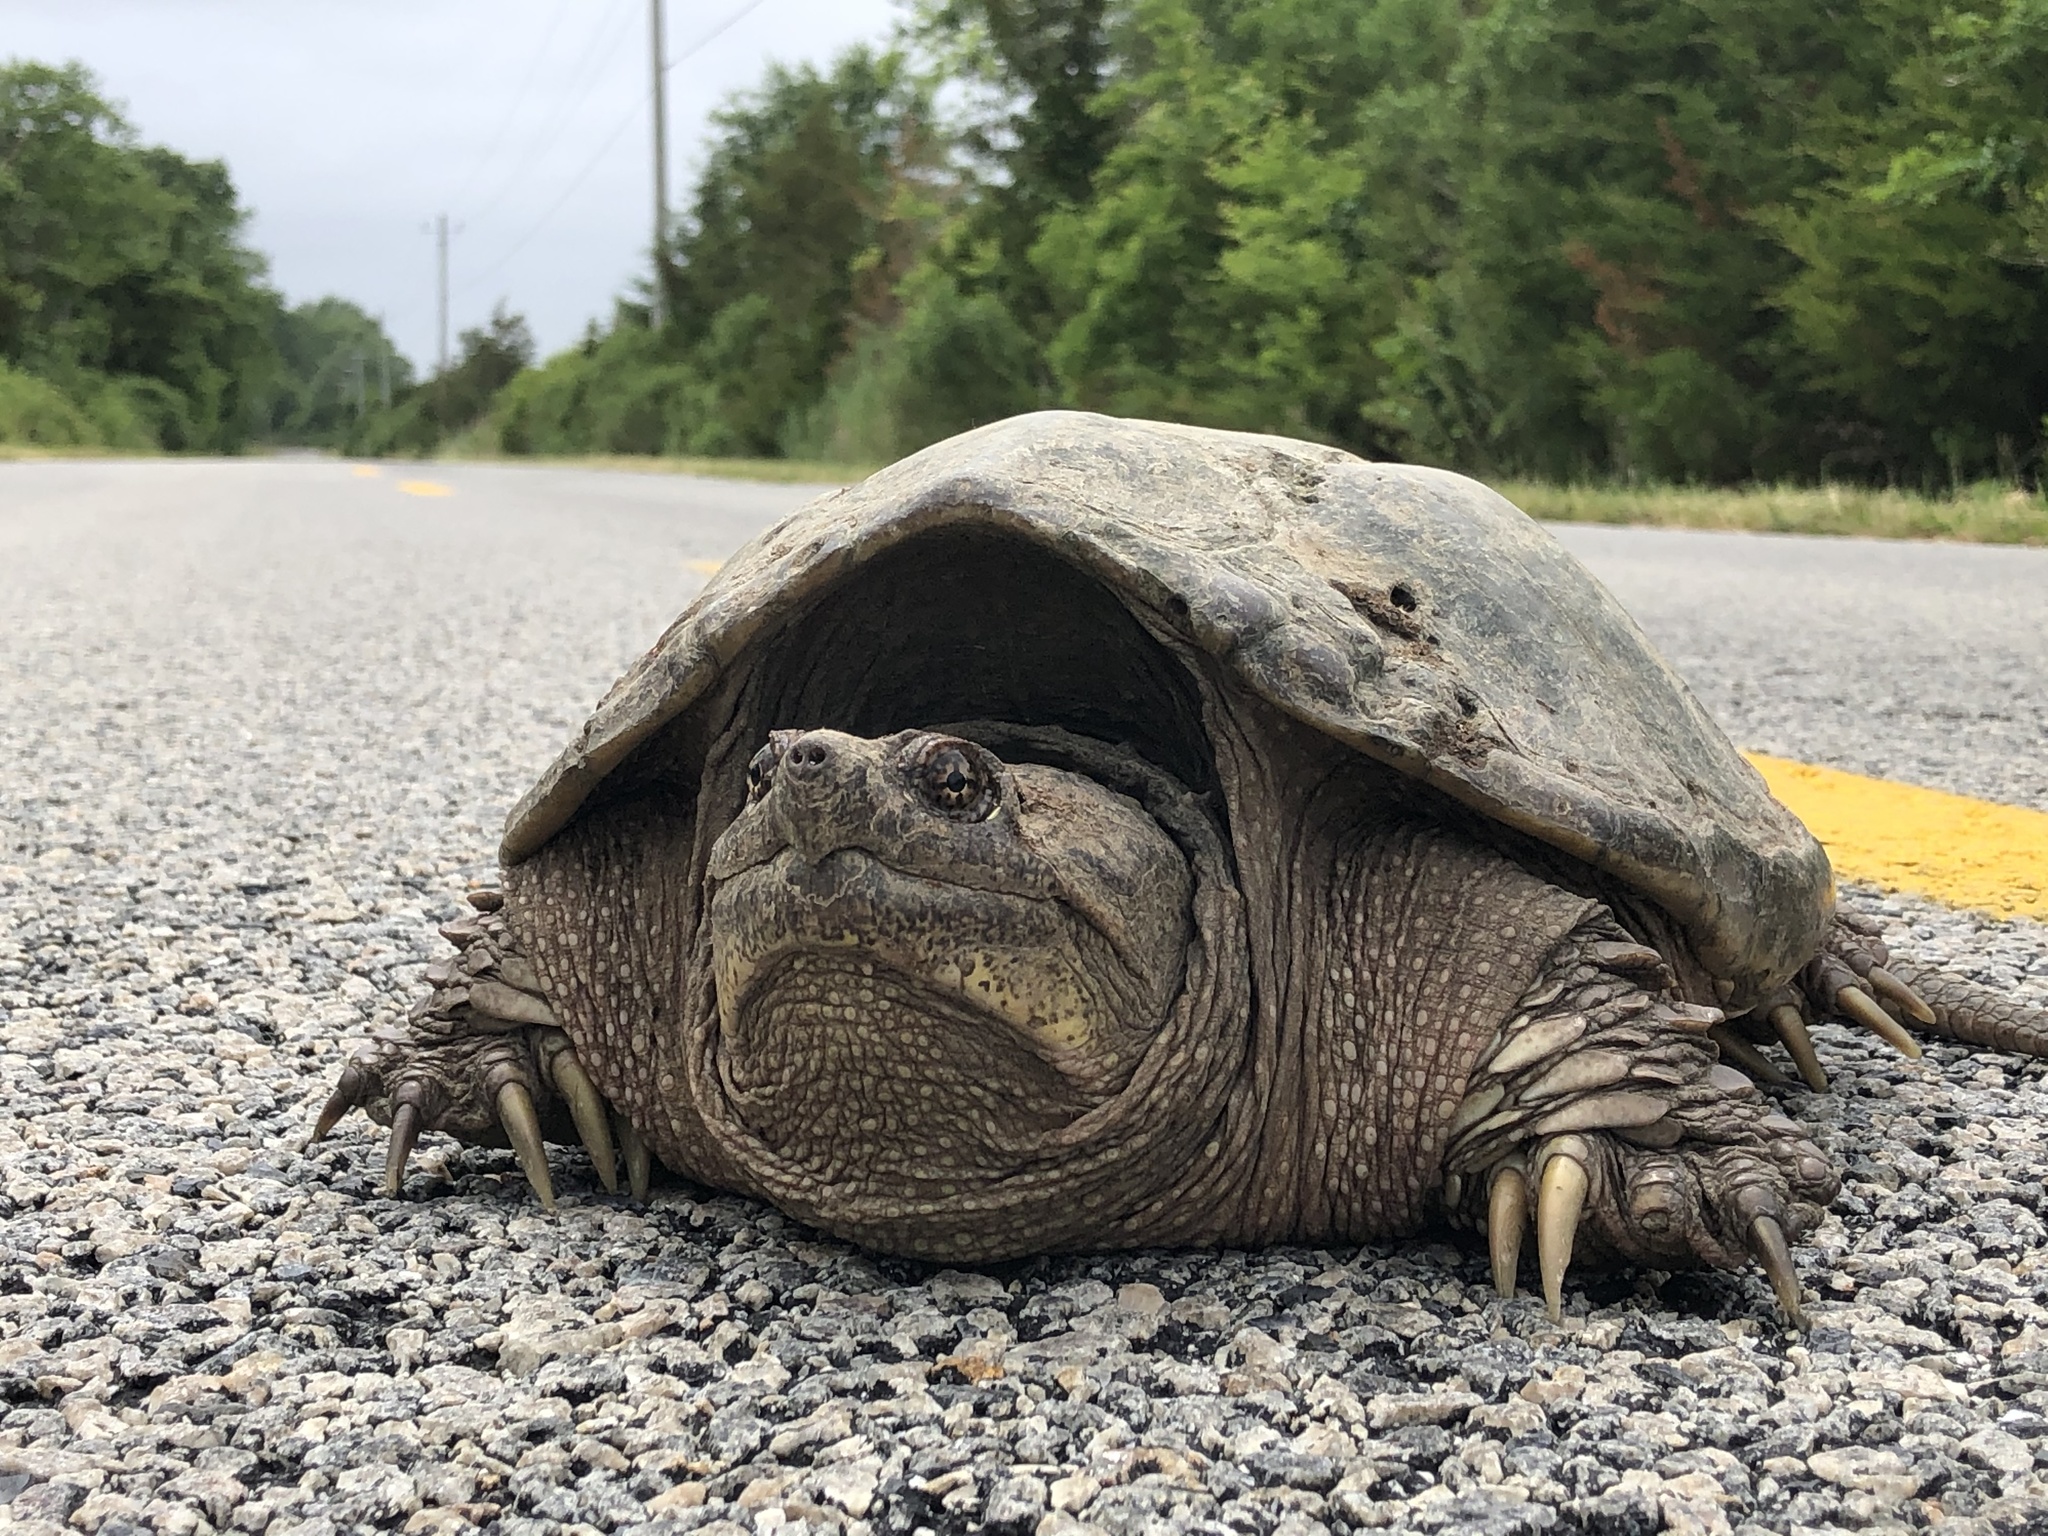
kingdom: Animalia
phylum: Chordata
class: Testudines
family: Chelydridae
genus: Chelydra
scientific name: Chelydra serpentina
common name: Common snapping turtle
